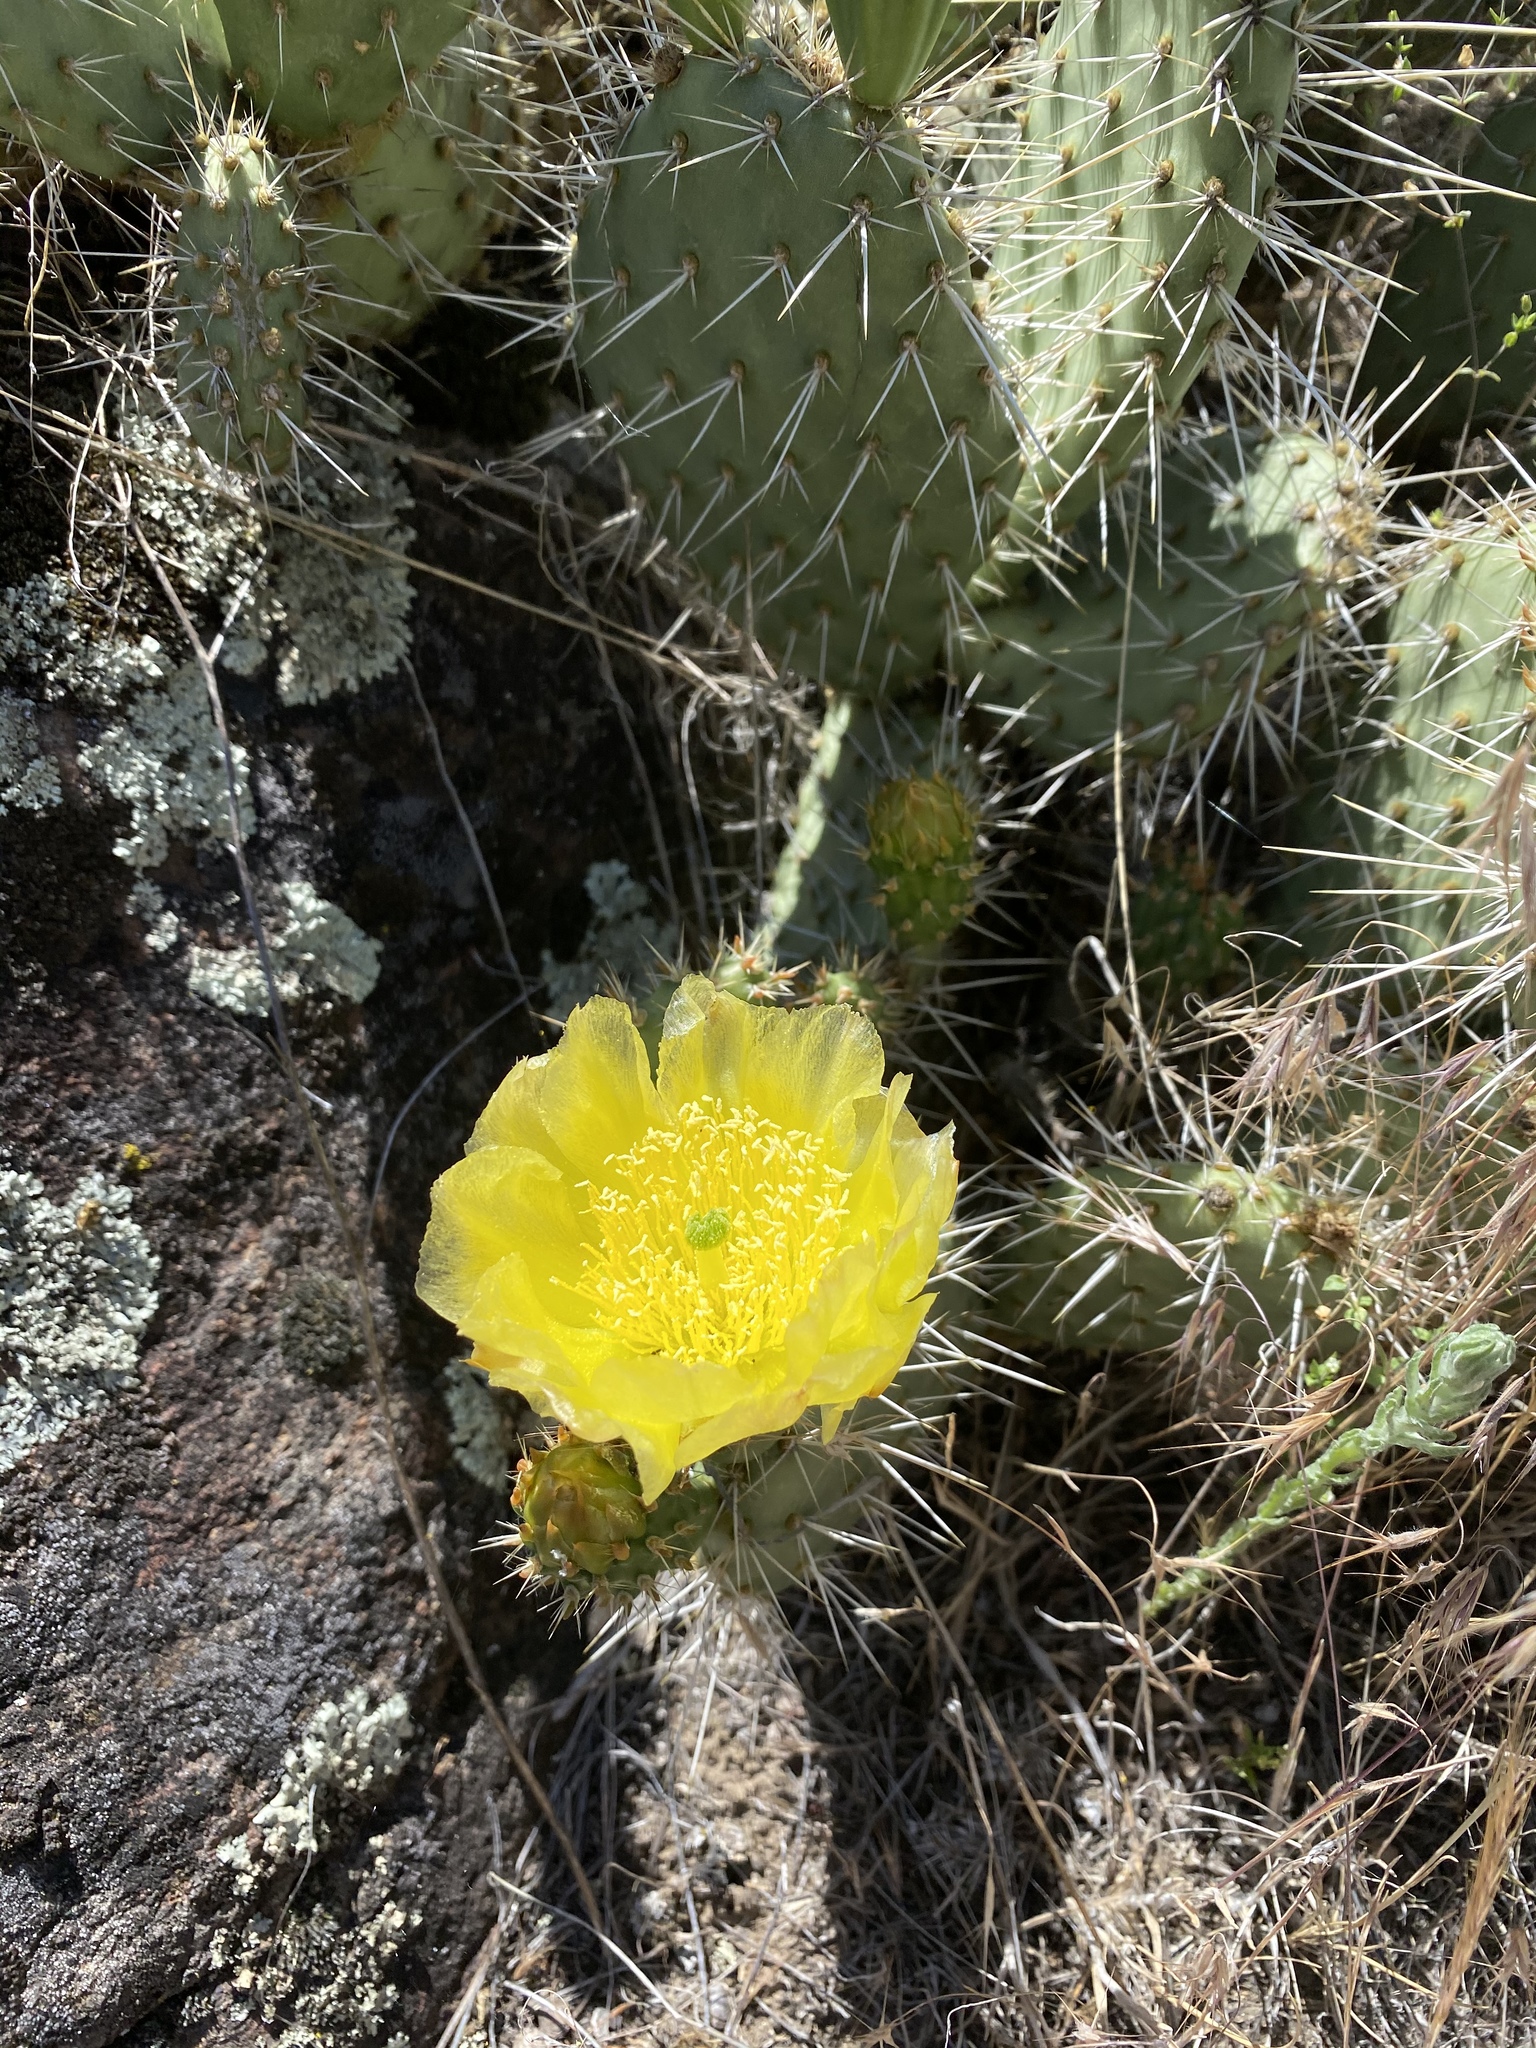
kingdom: Plantae
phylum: Tracheophyta
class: Magnoliopsida
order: Caryophyllales
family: Cactaceae
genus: Opuntia
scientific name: Opuntia polyacantha
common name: Plains prickly-pear
